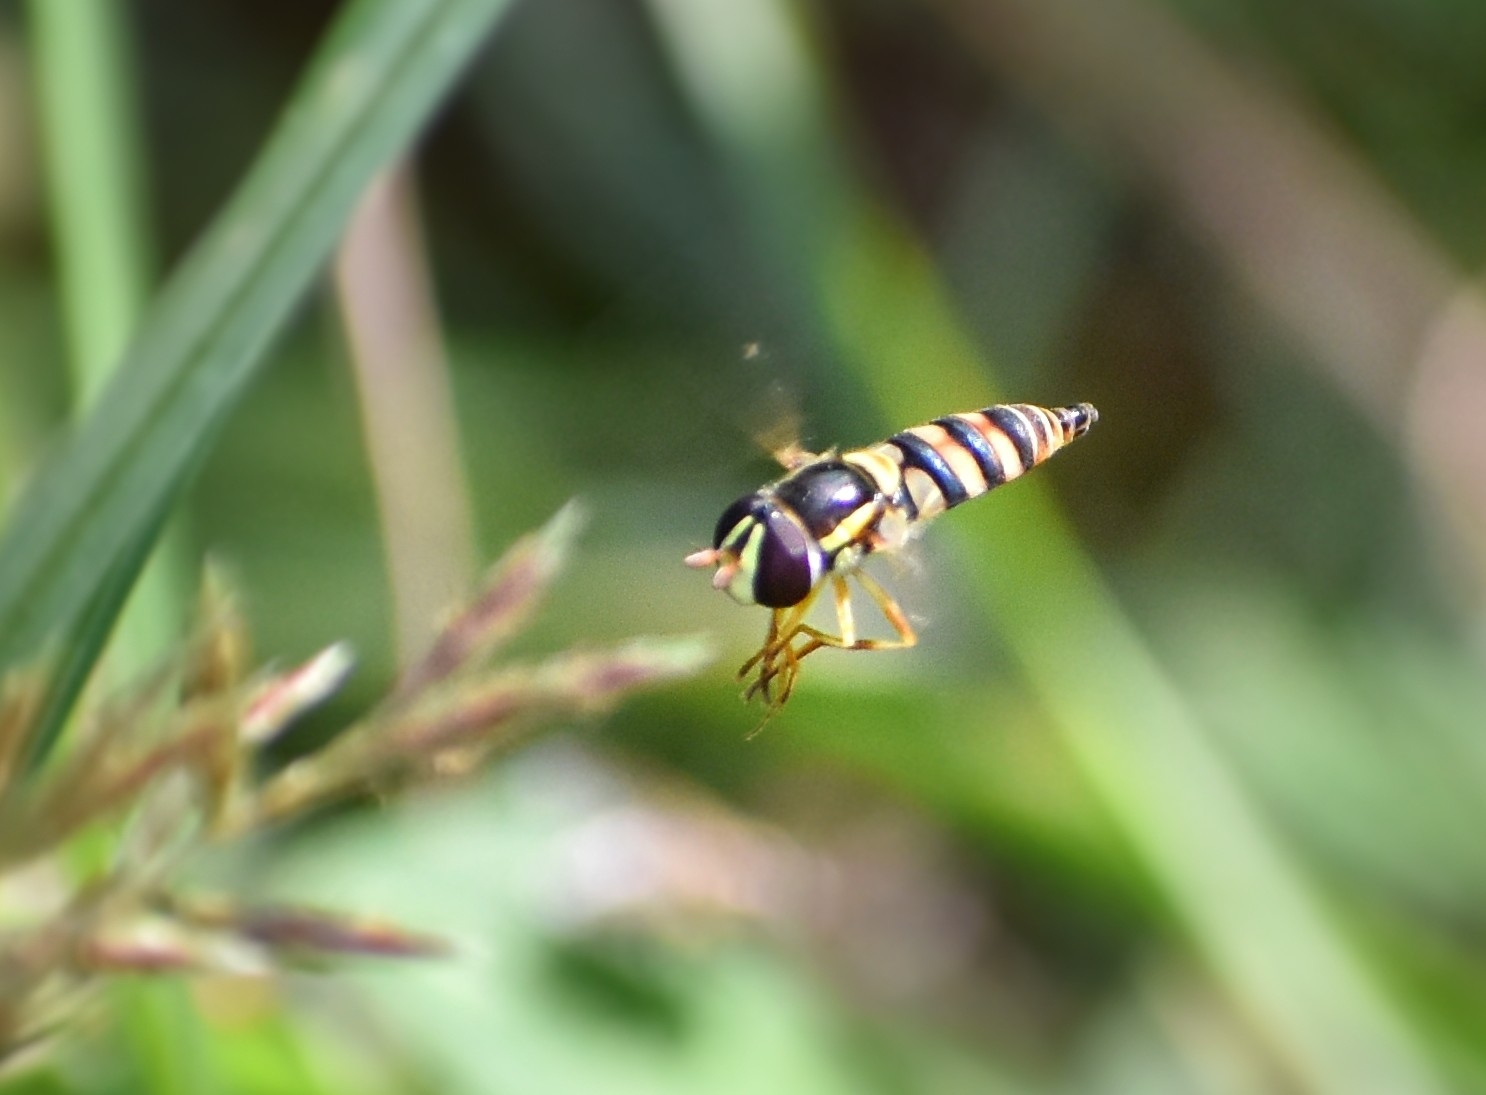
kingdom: Animalia
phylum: Arthropoda
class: Insecta
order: Diptera
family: Syrphidae
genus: Ischiodon
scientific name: Ischiodon scutellaris
